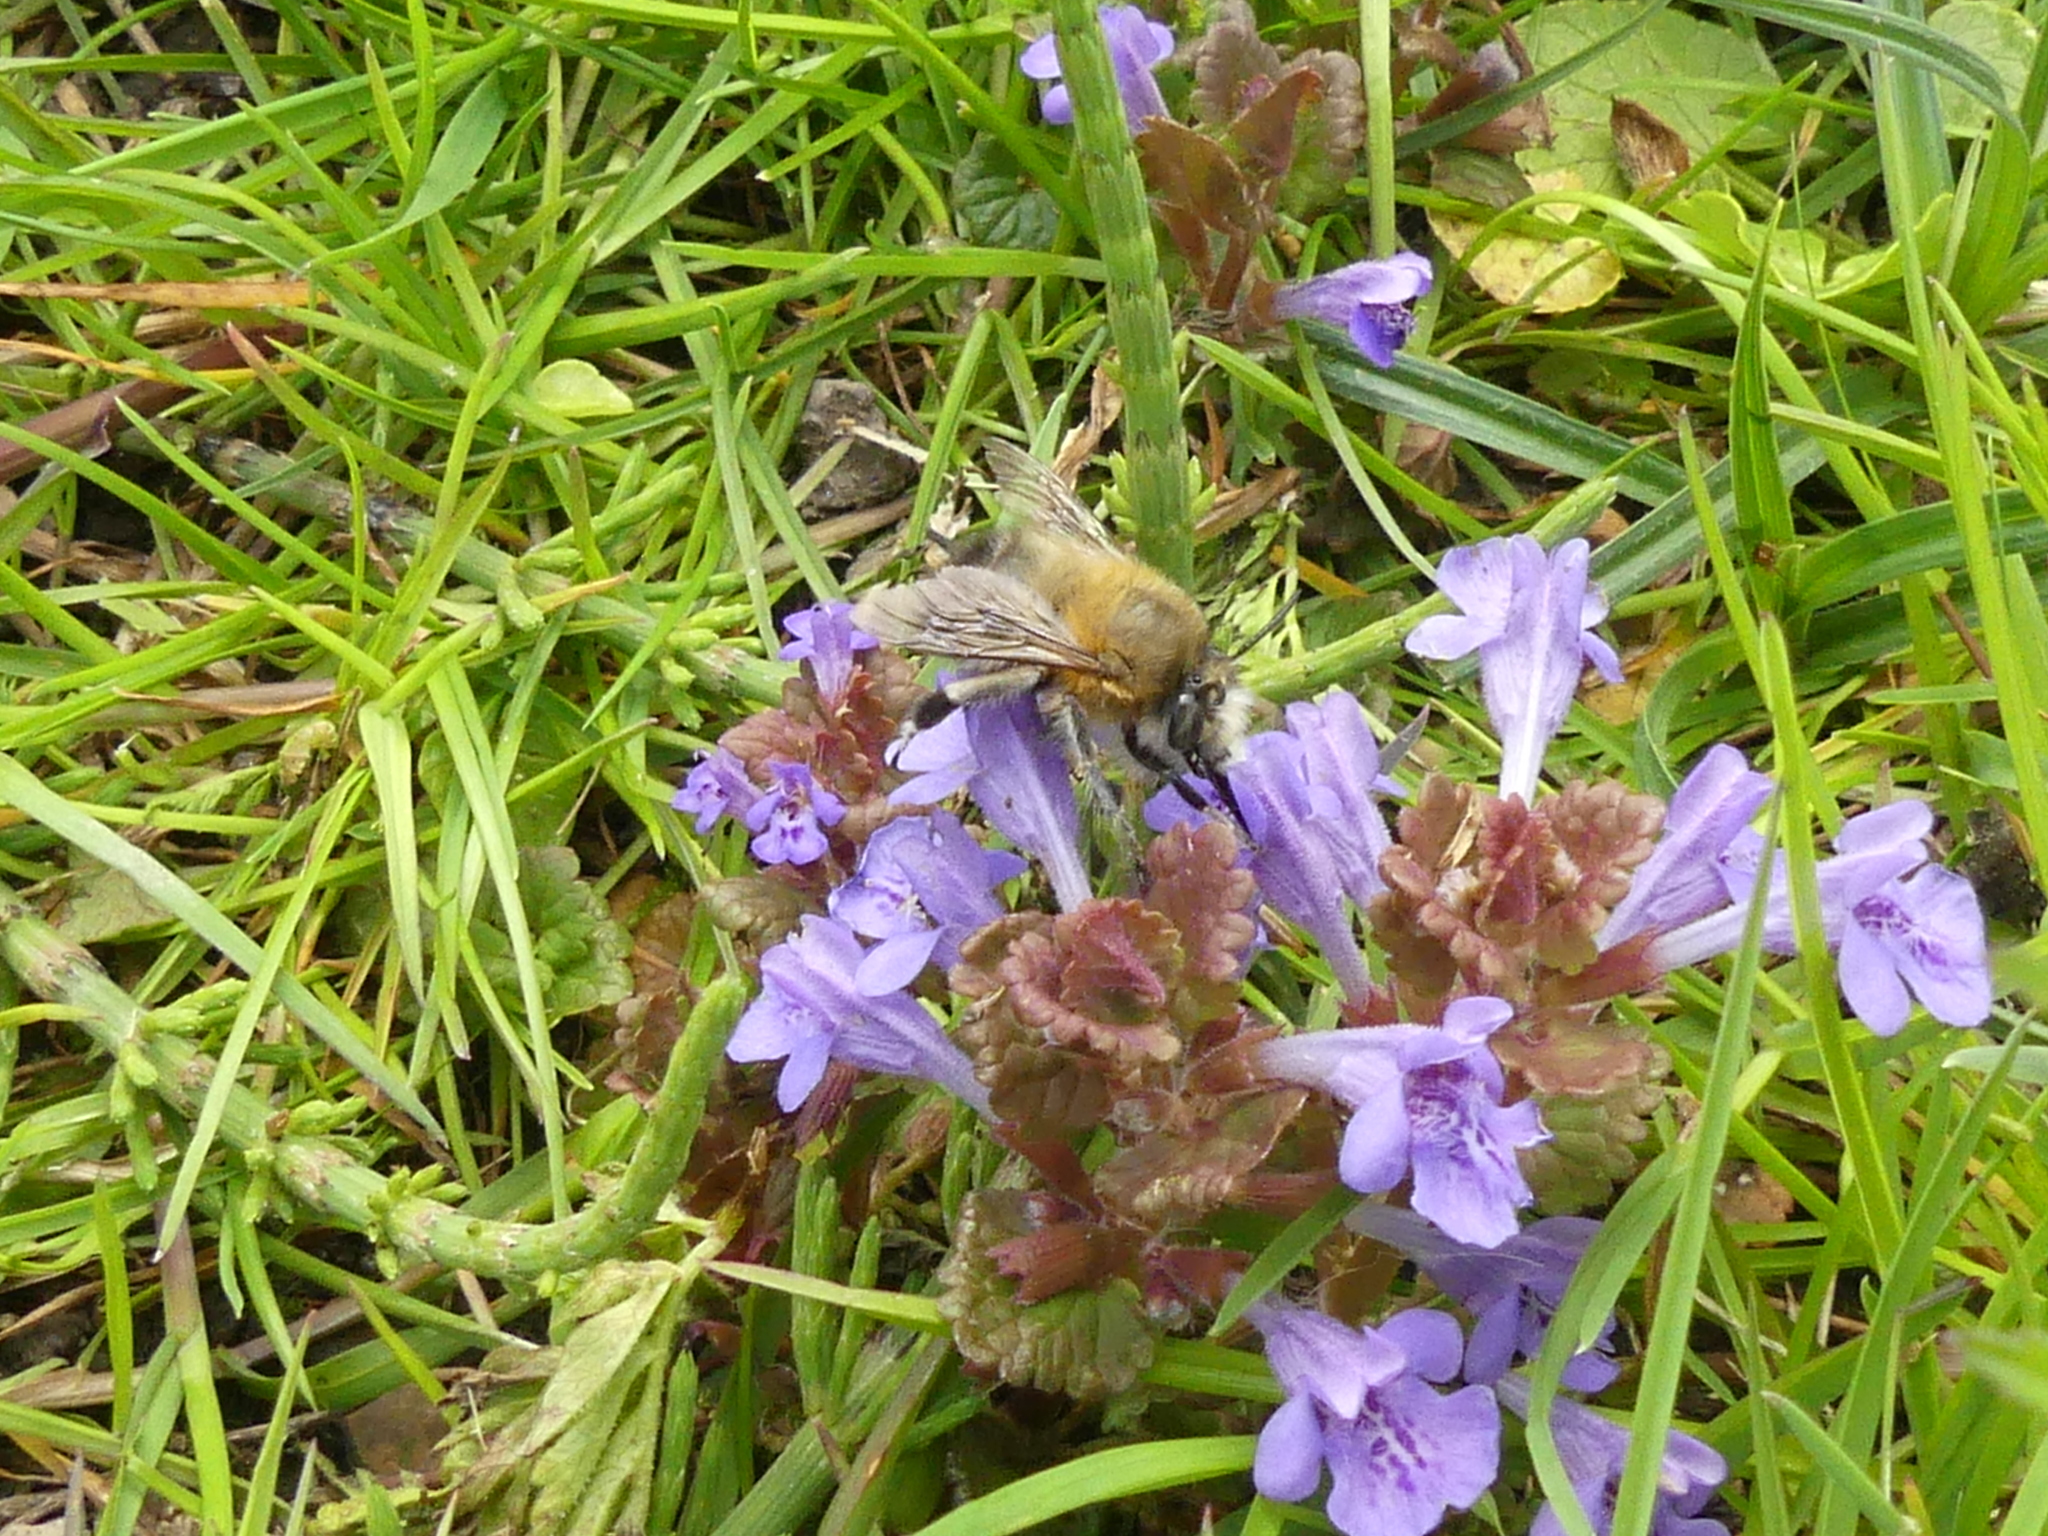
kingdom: Animalia
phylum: Arthropoda
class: Insecta
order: Hymenoptera
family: Apidae
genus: Anthophora
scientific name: Anthophora plumipes
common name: Hairy-footed flower bee
